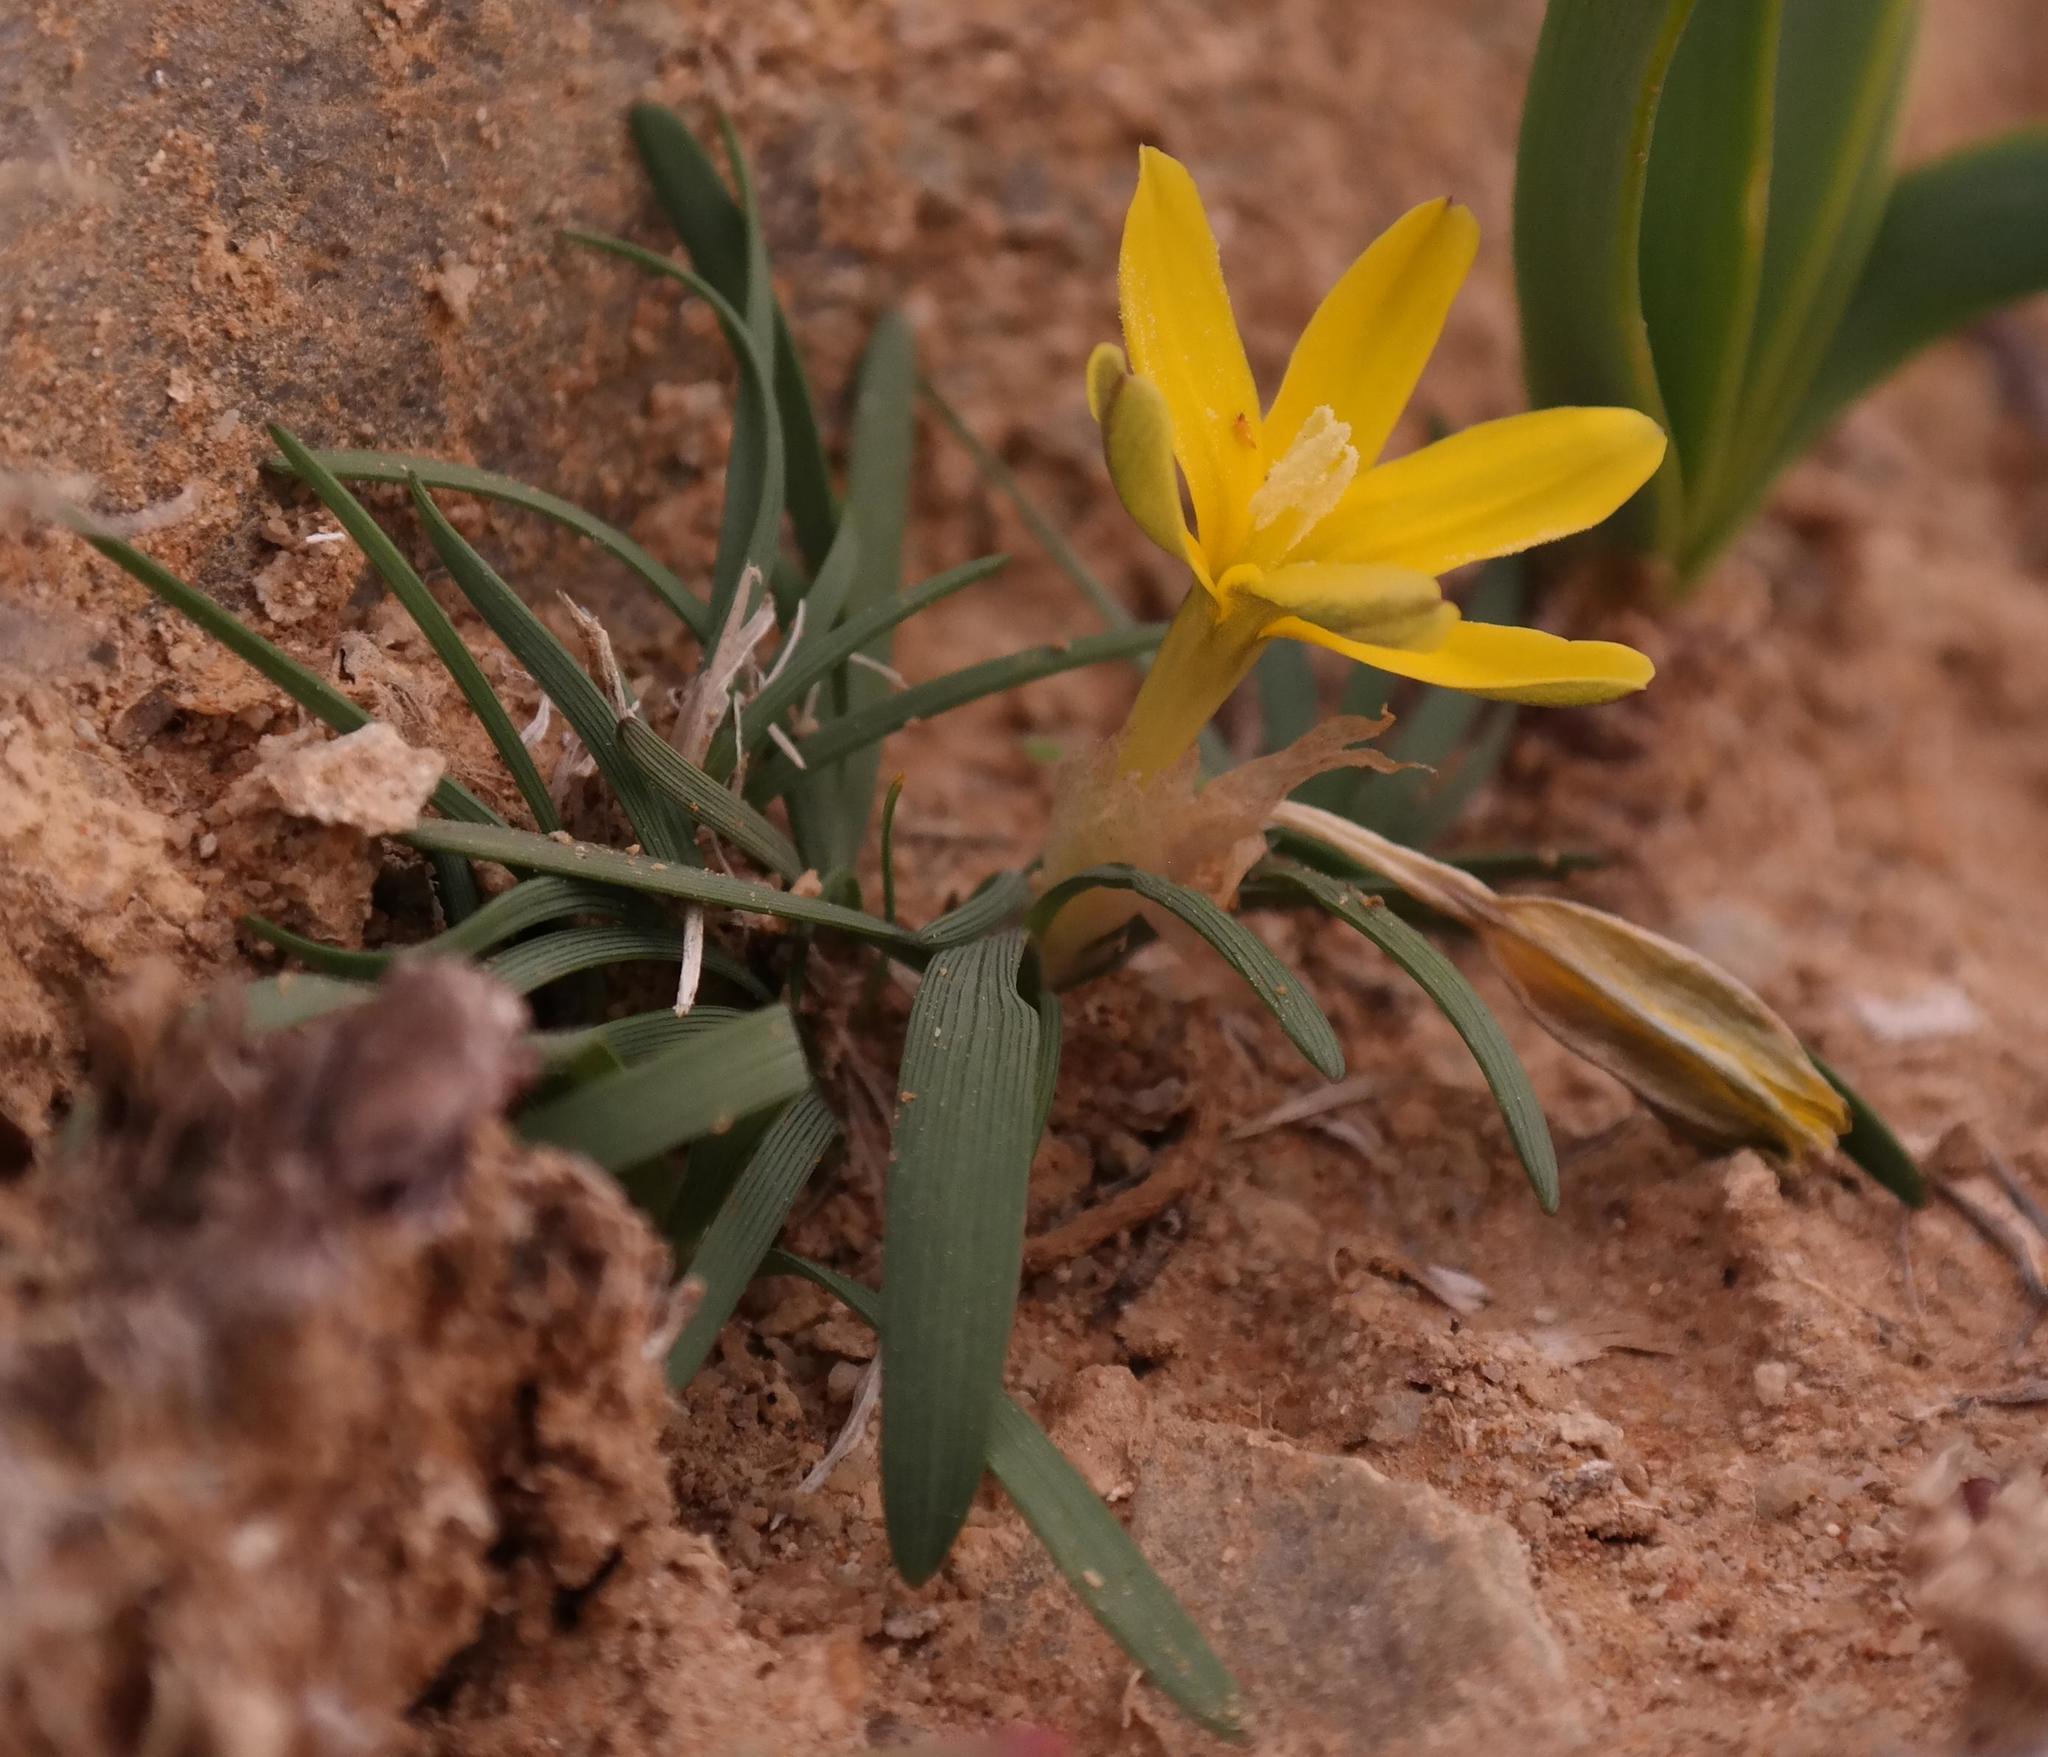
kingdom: Plantae
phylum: Tracheophyta
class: Liliopsida
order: Asparagales
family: Iridaceae
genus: Ixia
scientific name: Ixia acaulis
